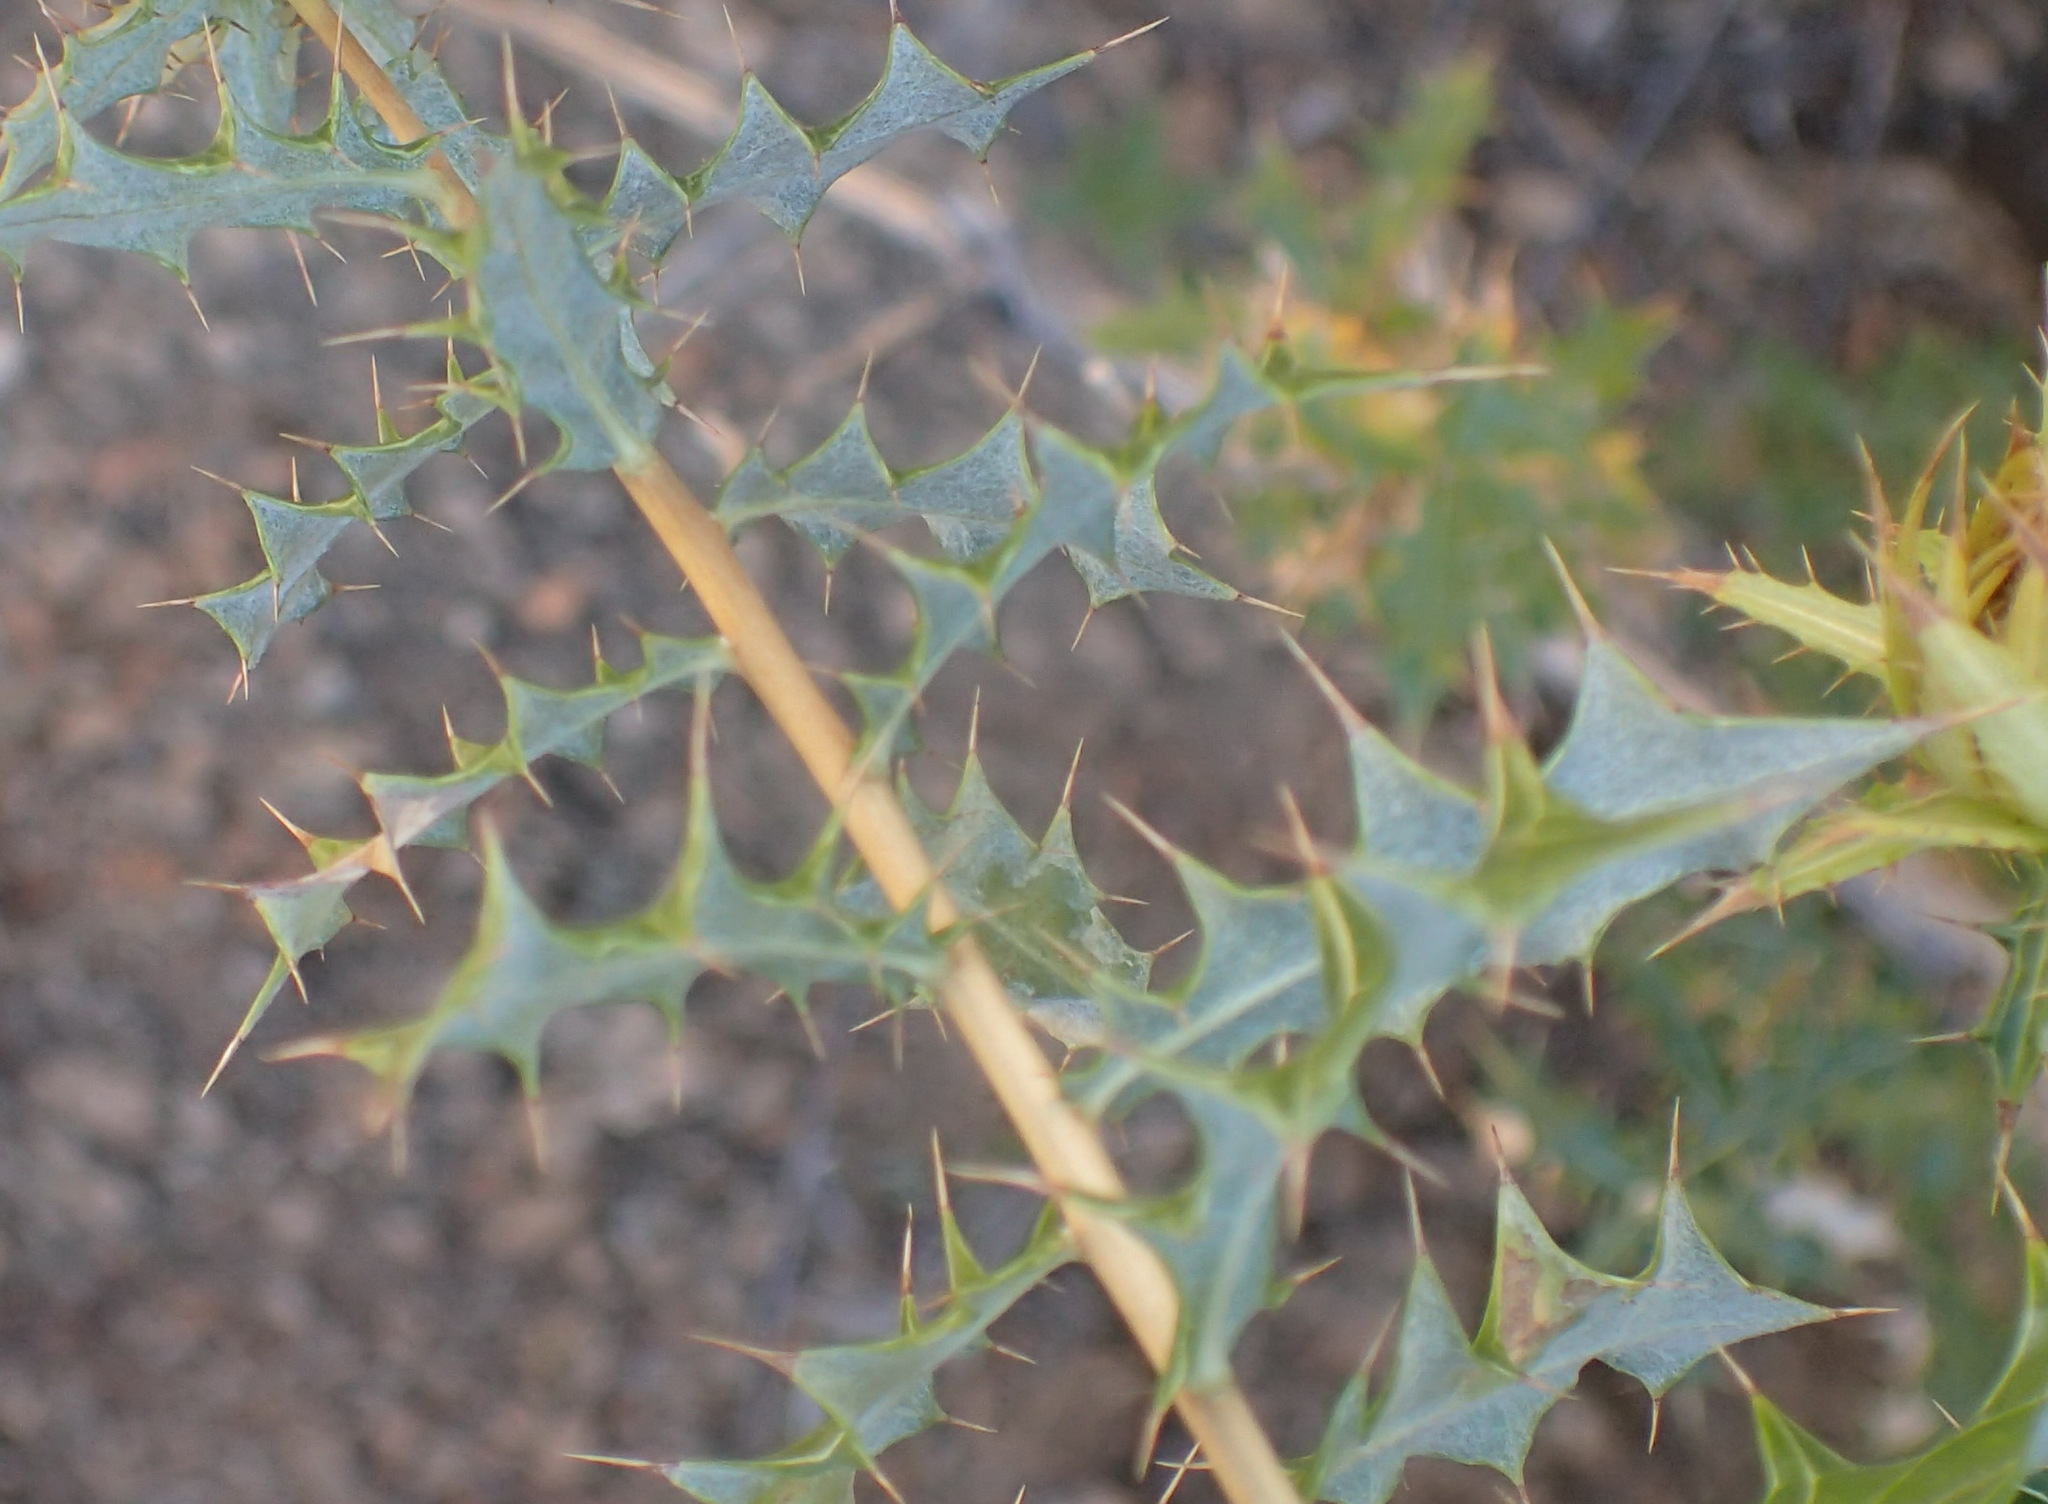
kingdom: Plantae
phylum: Tracheophyta
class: Magnoliopsida
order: Asterales
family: Asteraceae
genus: Berkheya
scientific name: Berkheya chamaepeuce
